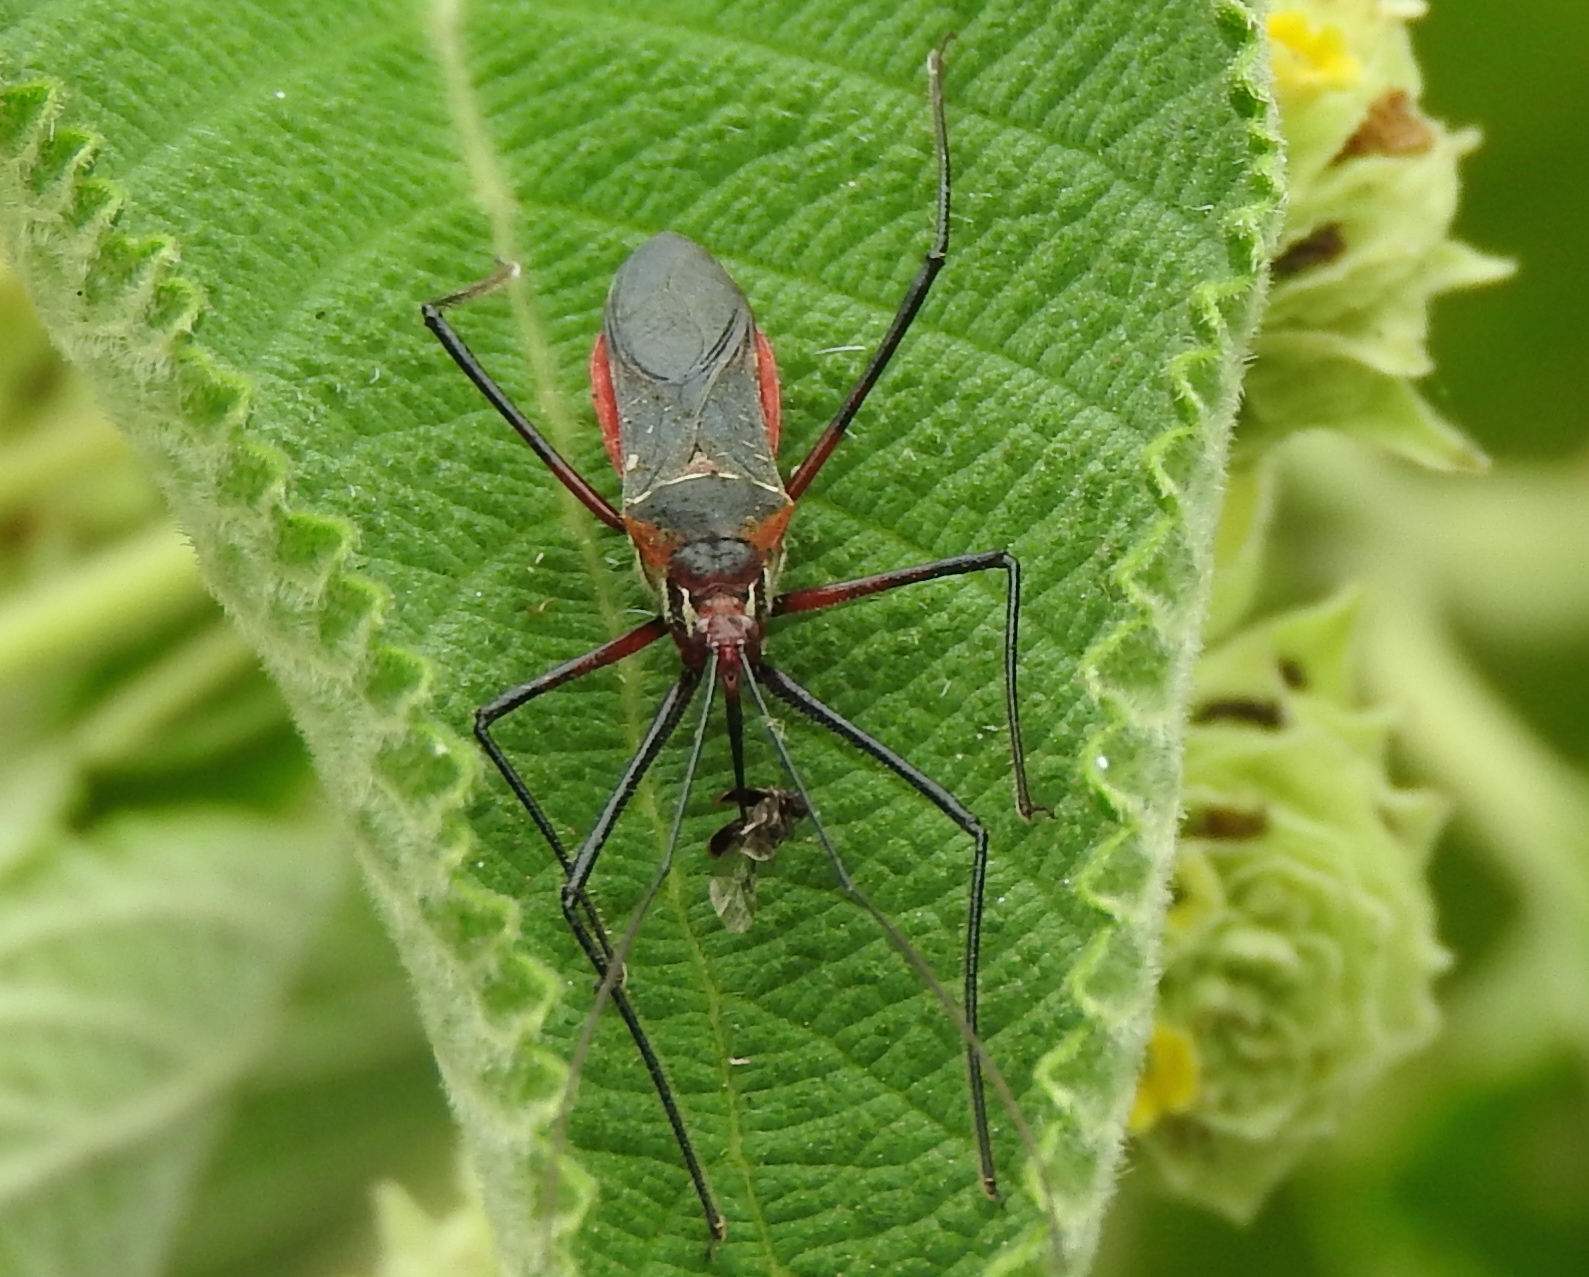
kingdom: Animalia
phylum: Arthropoda
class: Insecta
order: Hemiptera
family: Reduviidae
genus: Zelus
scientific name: Zelus grassans
